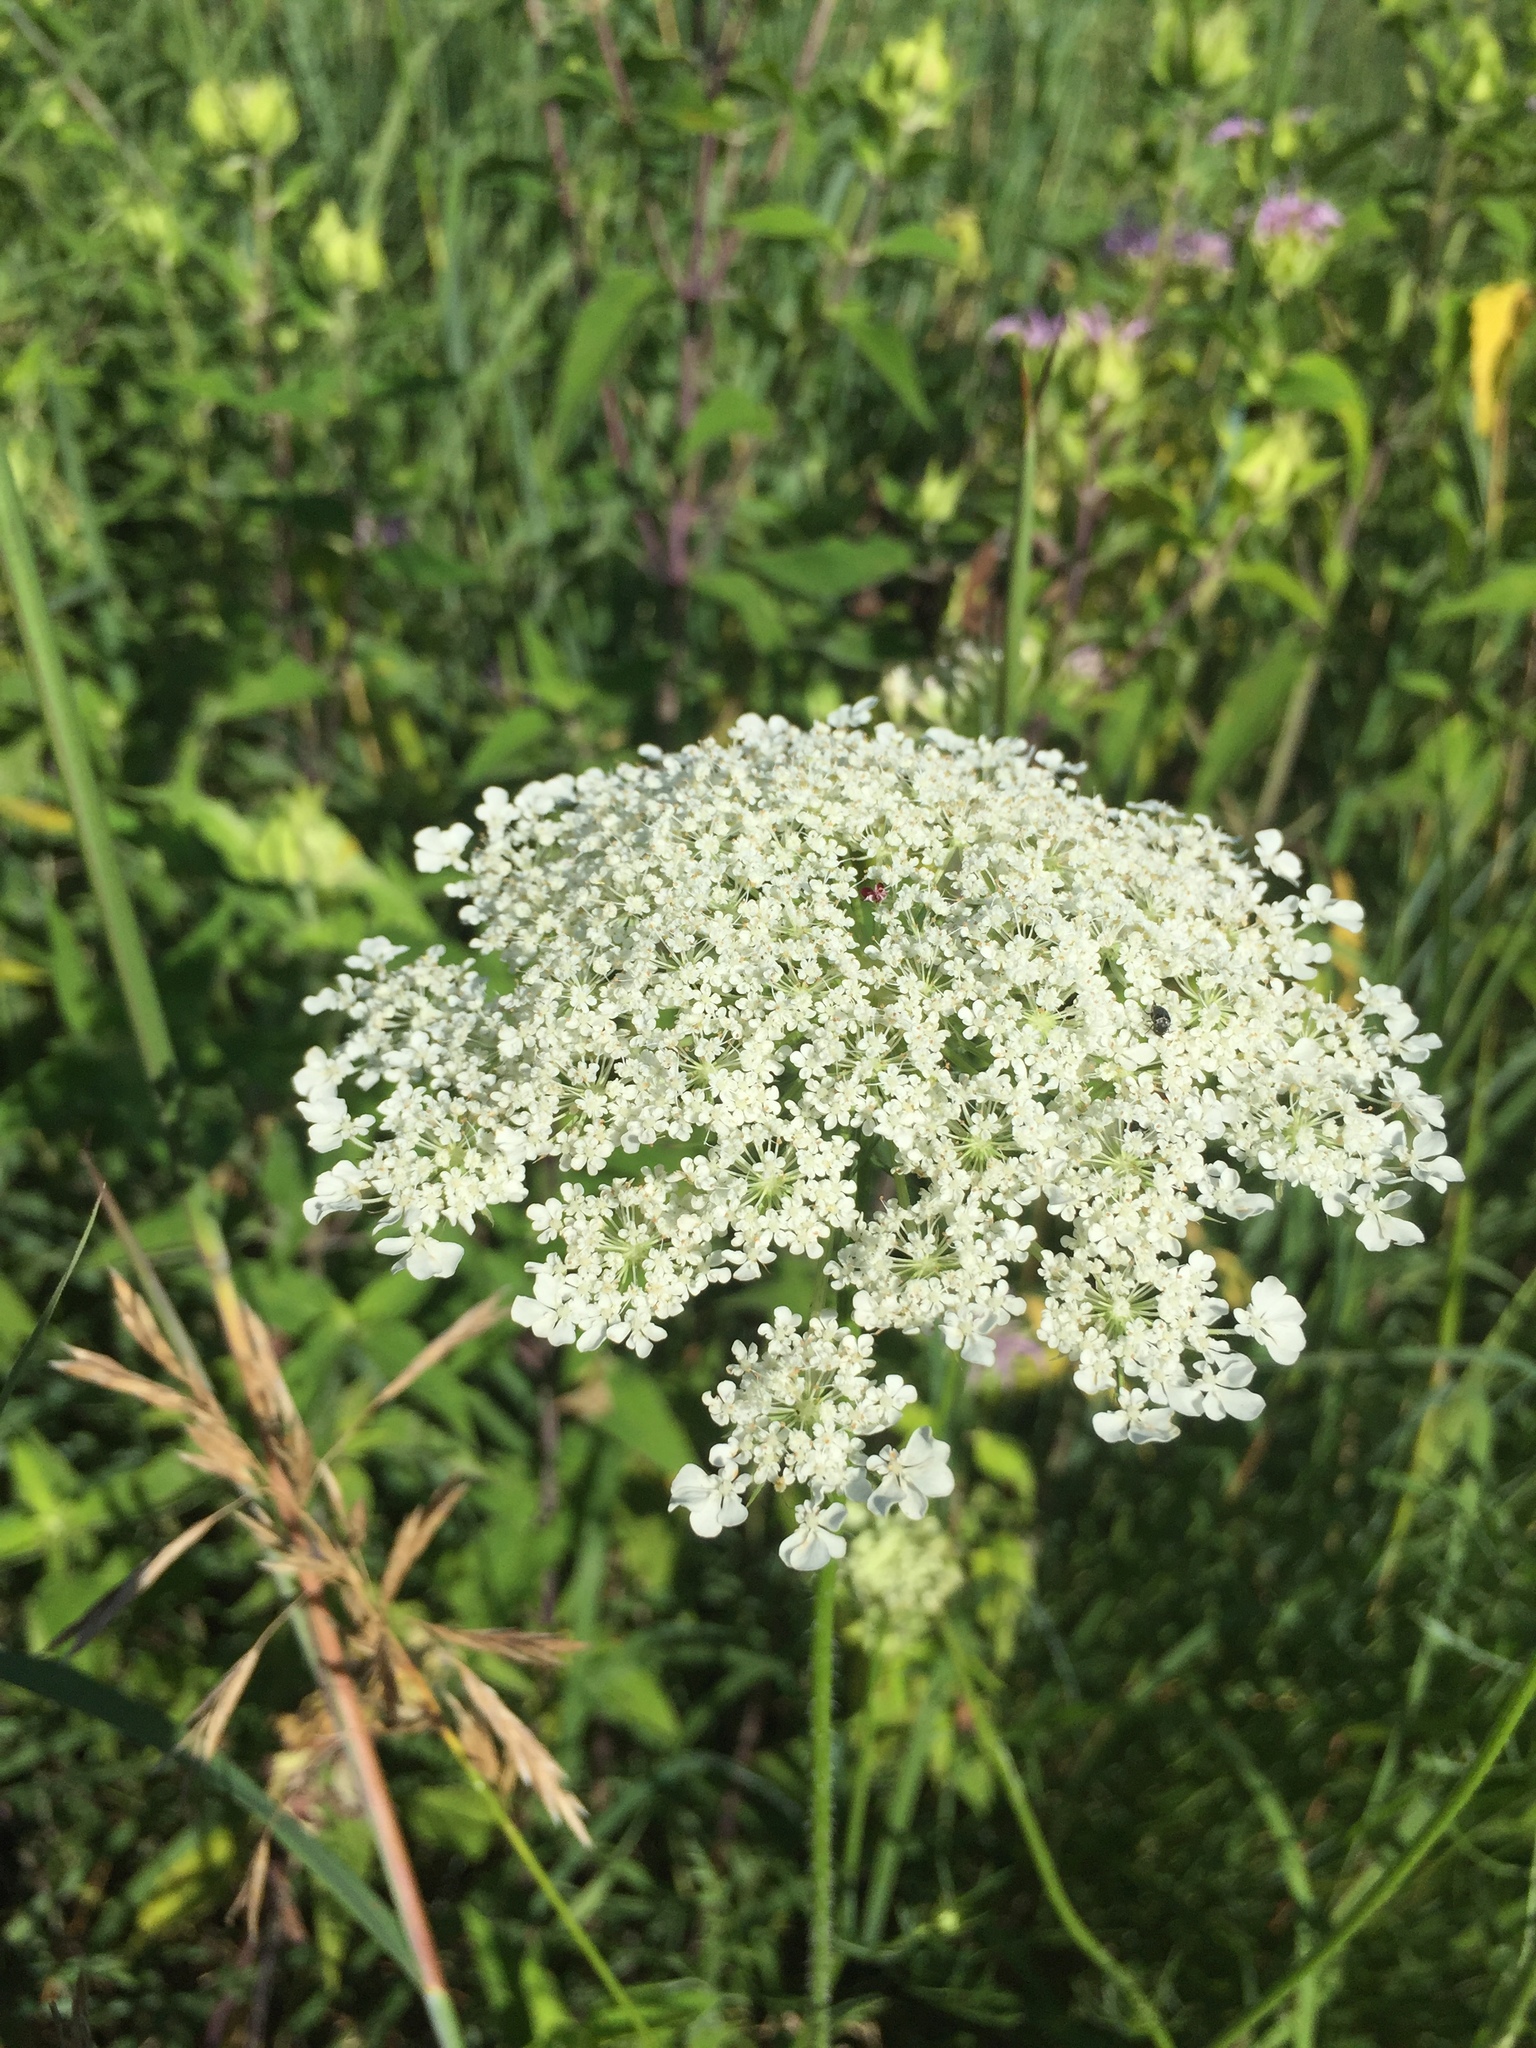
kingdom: Plantae
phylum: Tracheophyta
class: Magnoliopsida
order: Apiales
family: Apiaceae
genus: Daucus
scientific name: Daucus carota
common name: Wild carrot
